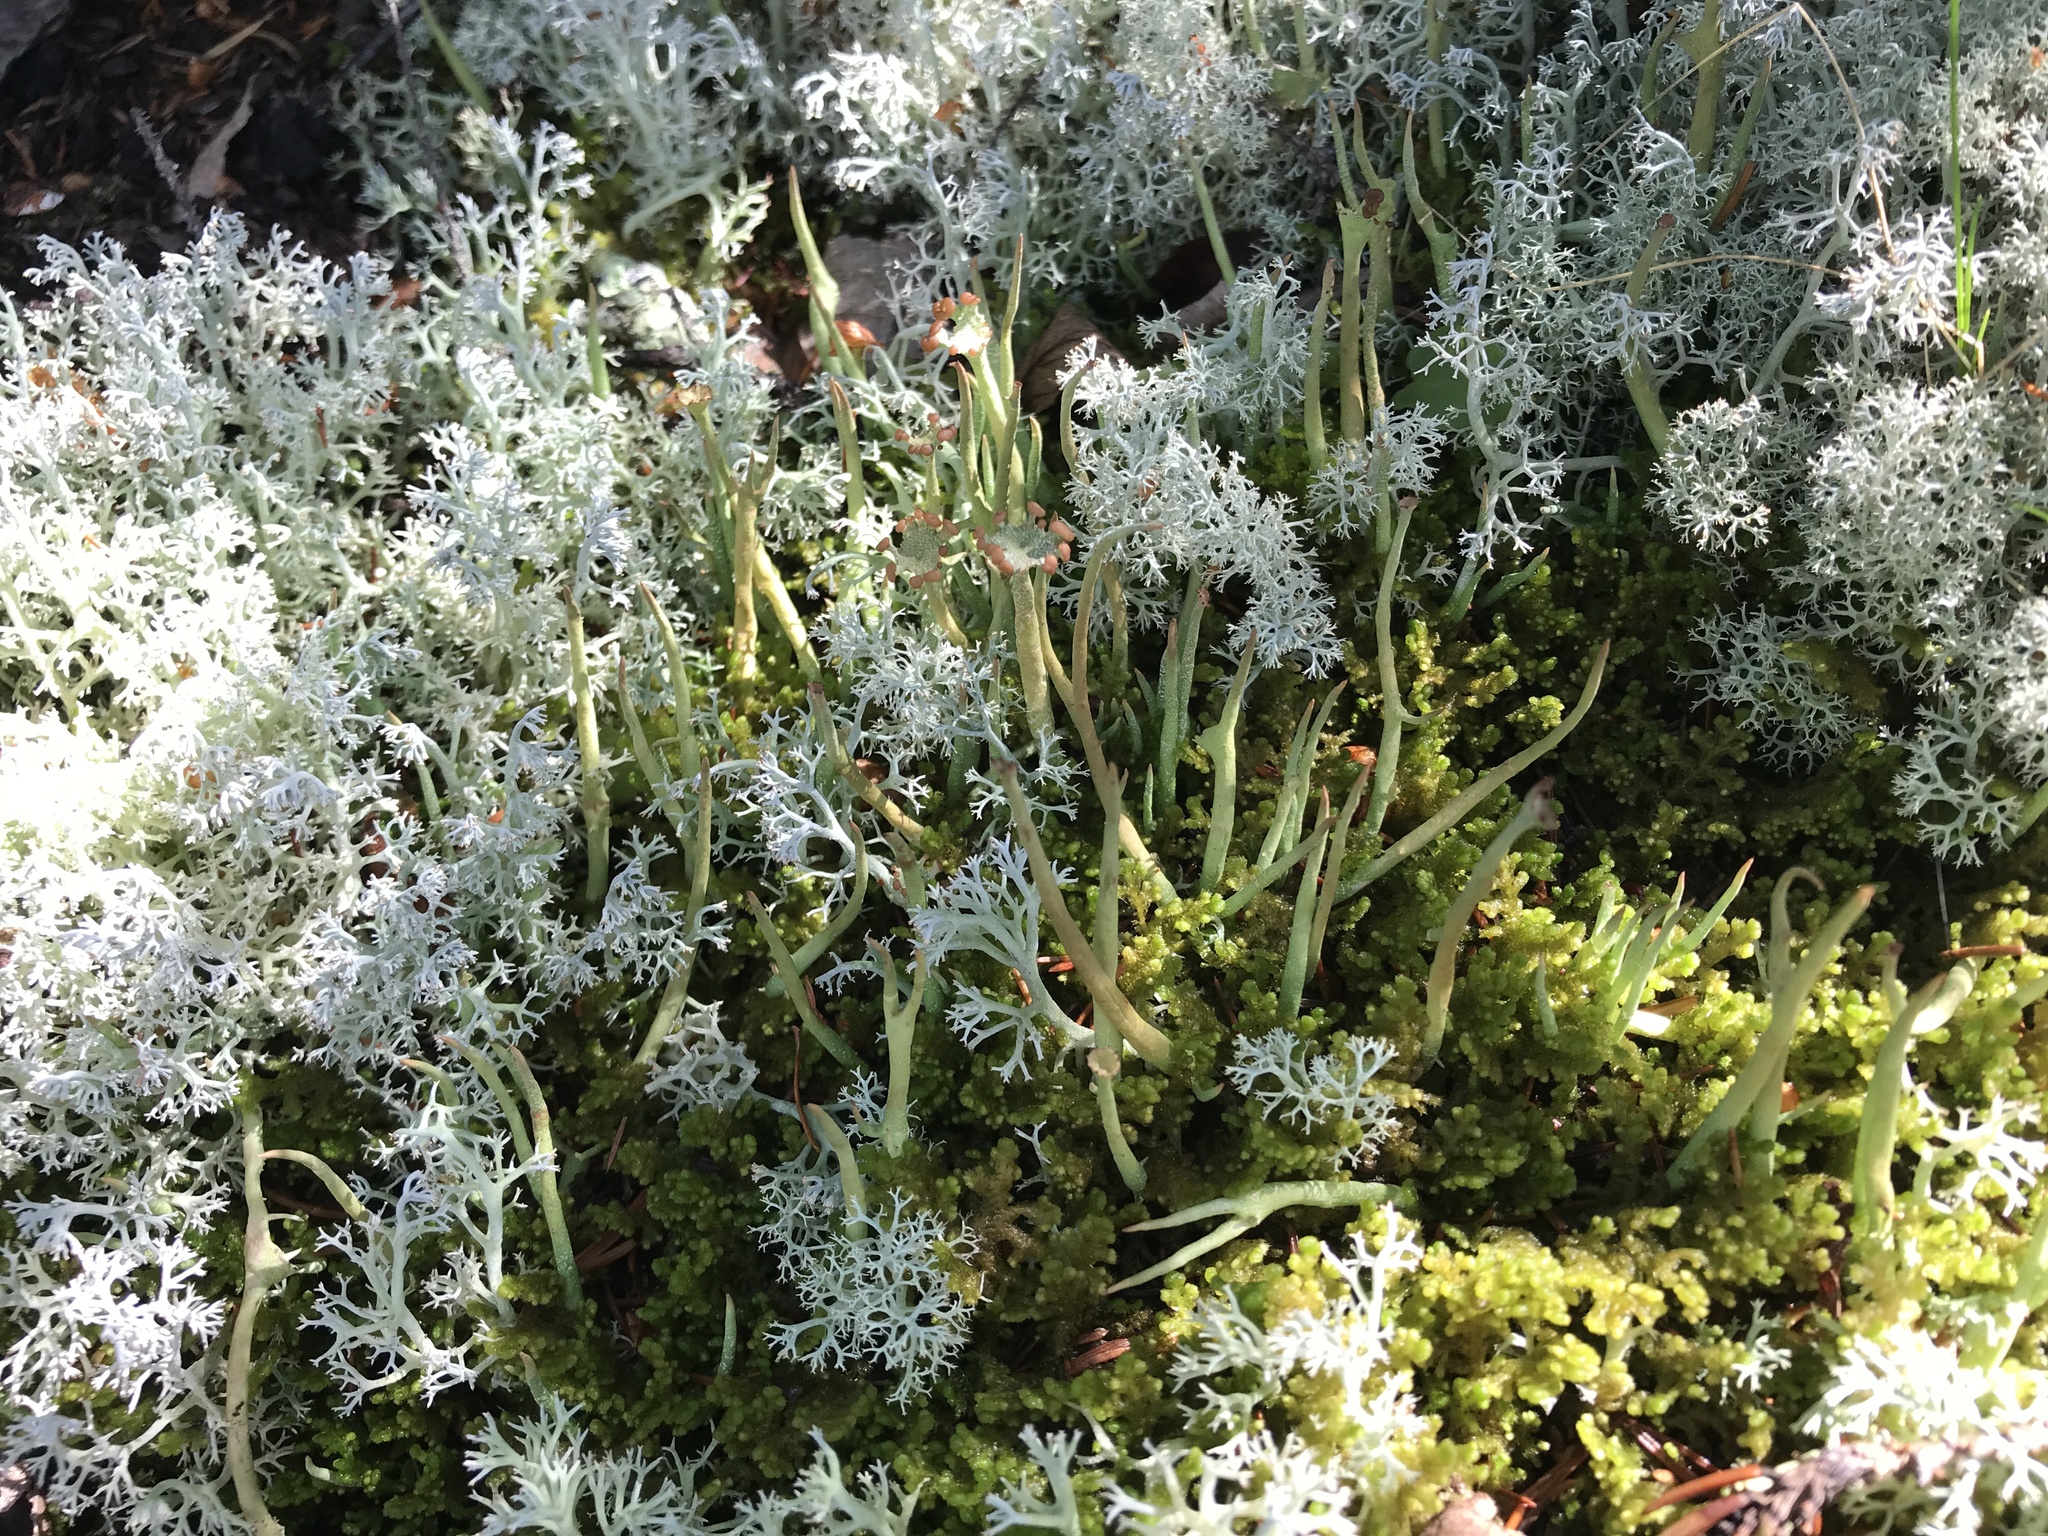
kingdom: Fungi
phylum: Ascomycota
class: Lecanoromycetes
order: Lecanorales
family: Cladoniaceae
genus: Cladonia
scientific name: Cladonia maxima
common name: Giant cladonia lichen
